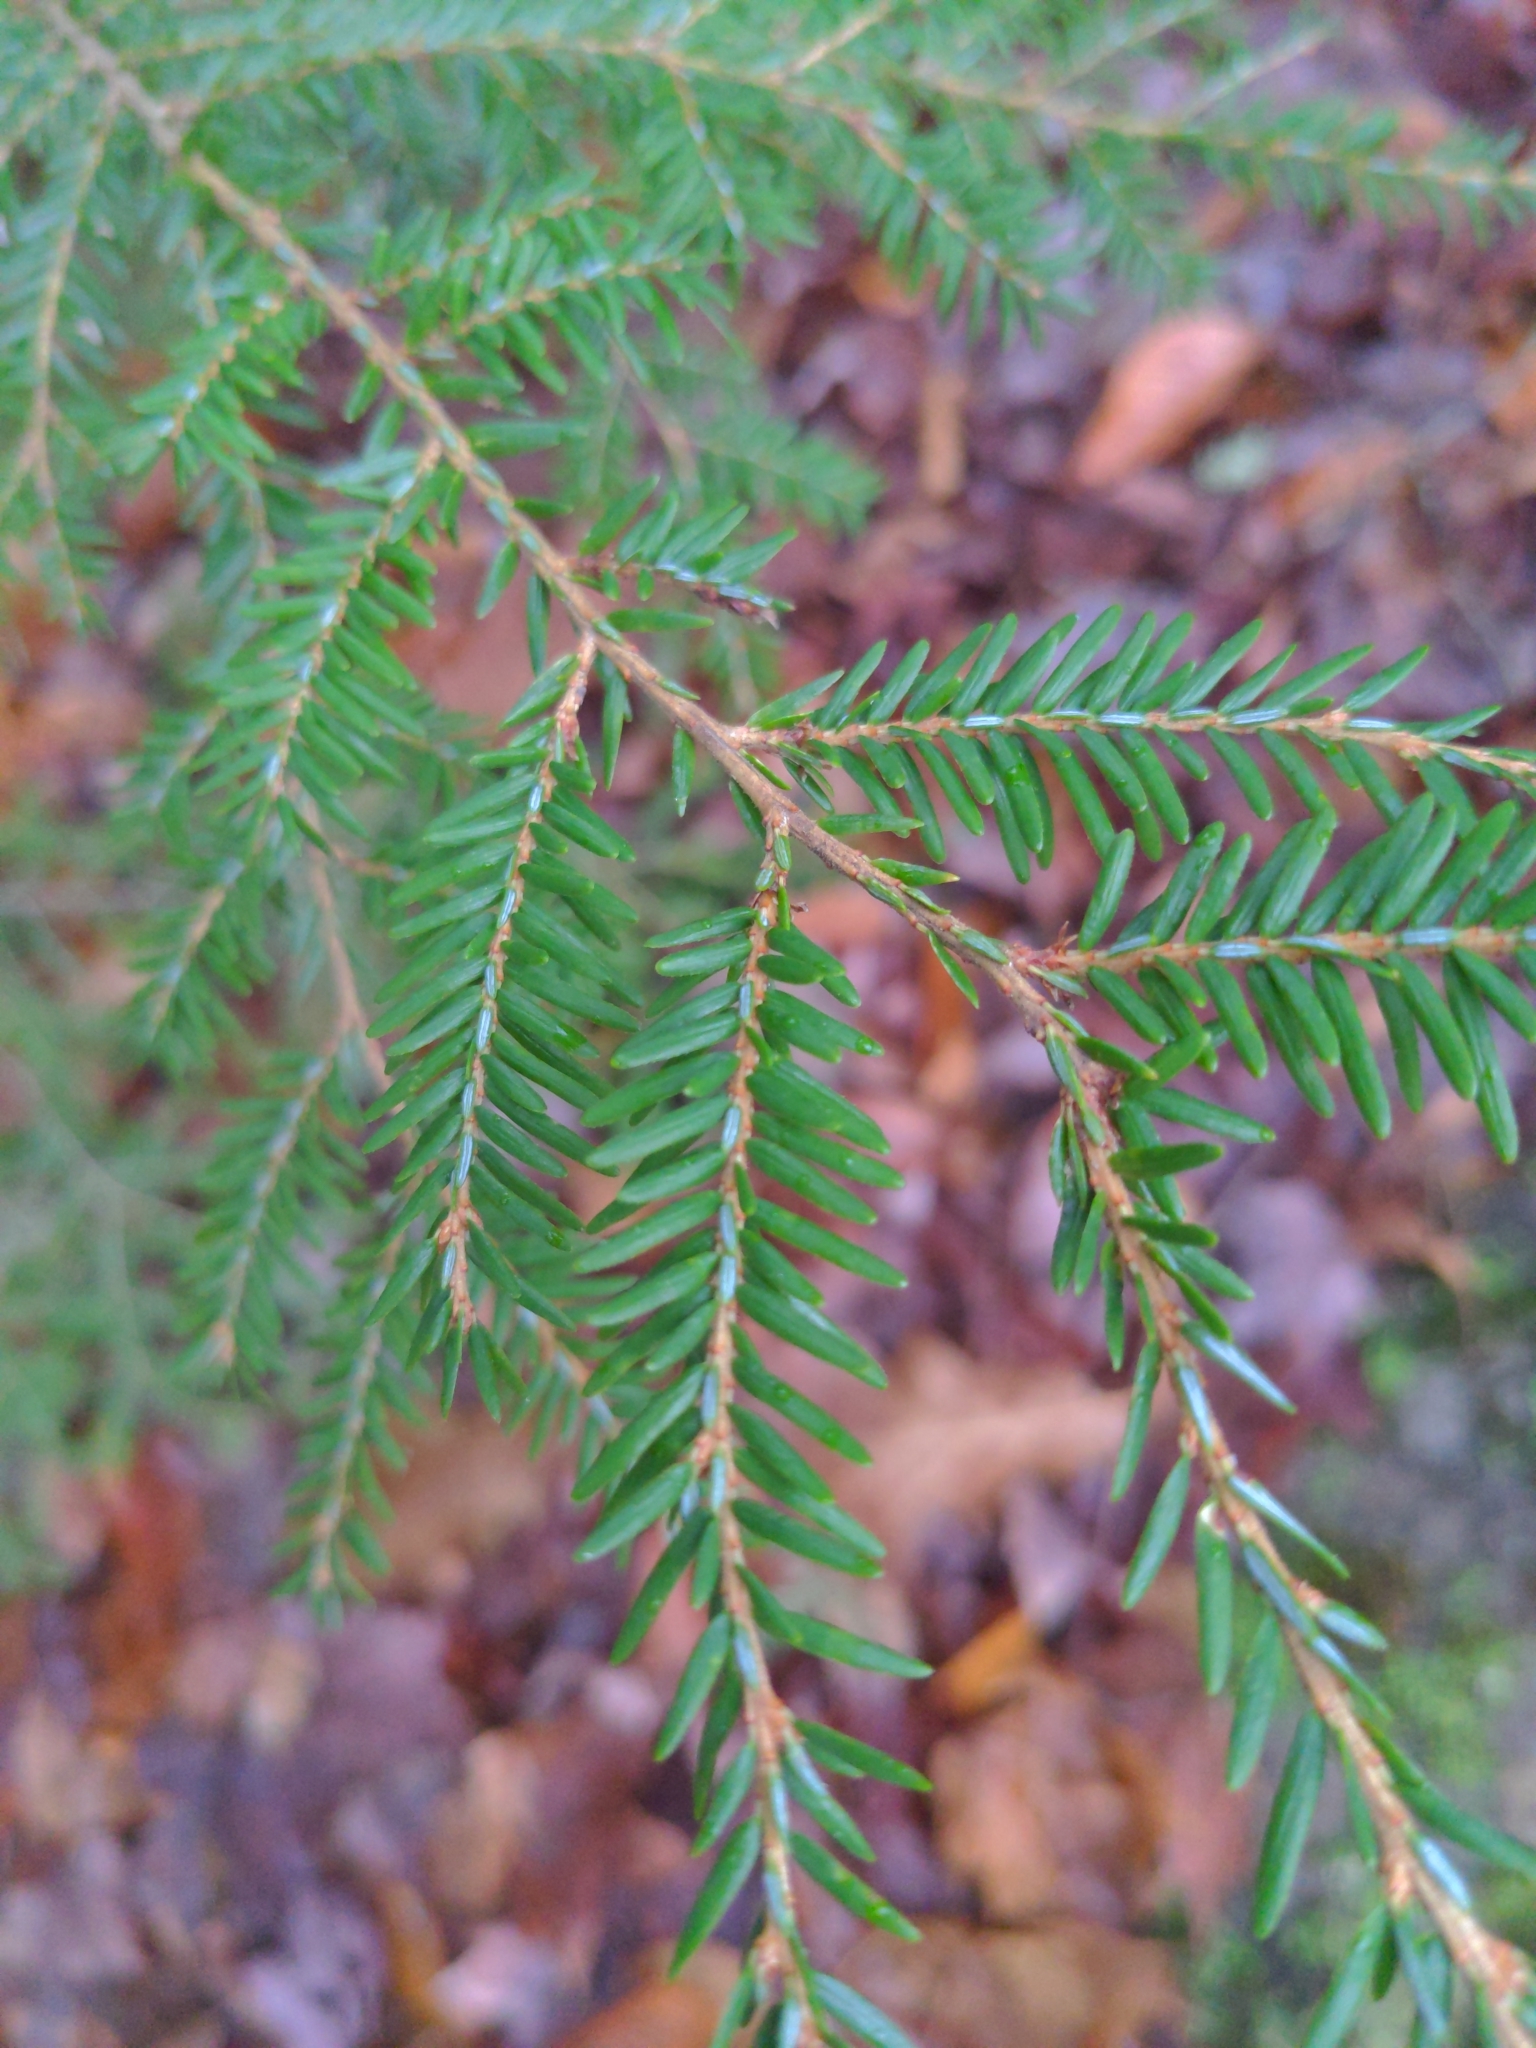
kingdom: Plantae
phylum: Tracheophyta
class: Pinopsida
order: Pinales
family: Pinaceae
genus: Tsuga
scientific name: Tsuga canadensis
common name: Eastern hemlock
